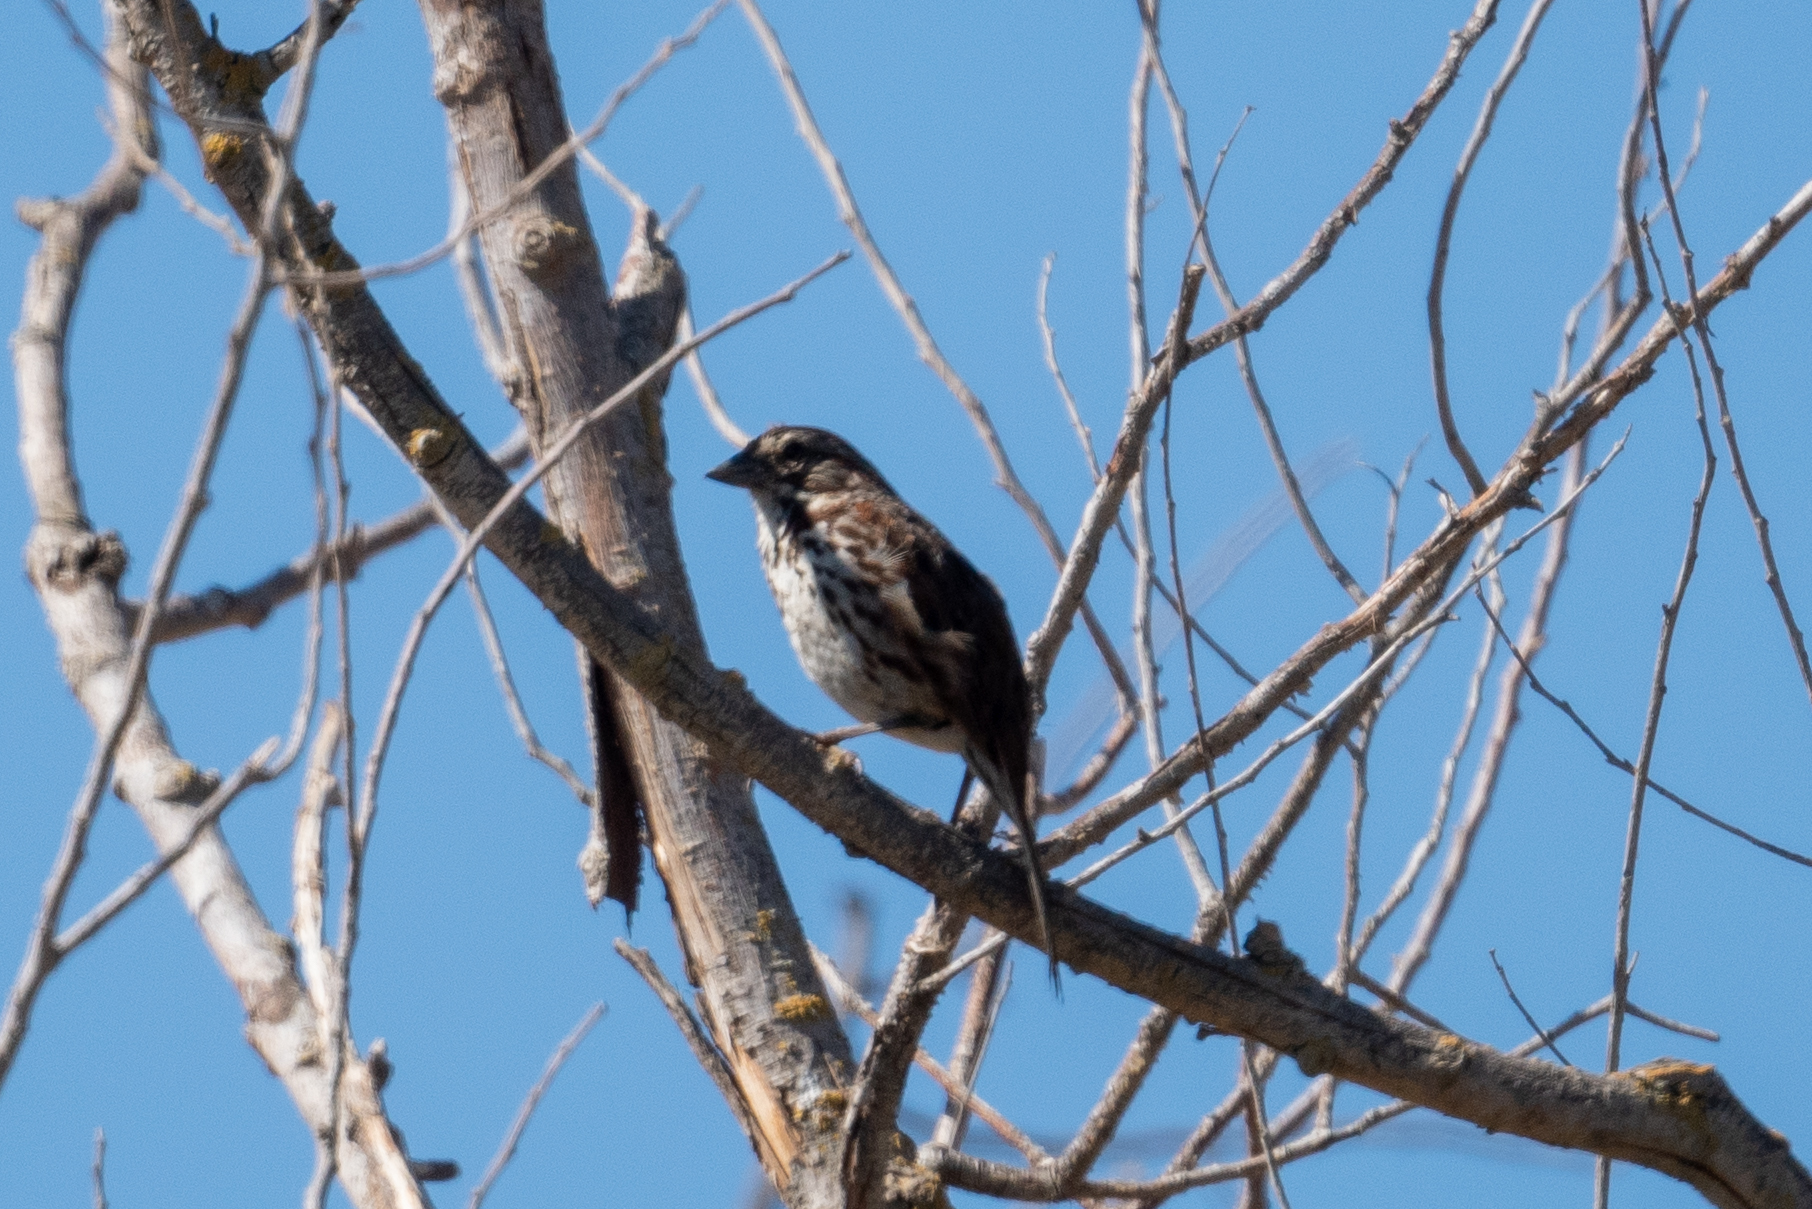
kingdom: Animalia
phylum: Chordata
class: Aves
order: Passeriformes
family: Passerellidae
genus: Melospiza
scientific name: Melospiza melodia
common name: Song sparrow
